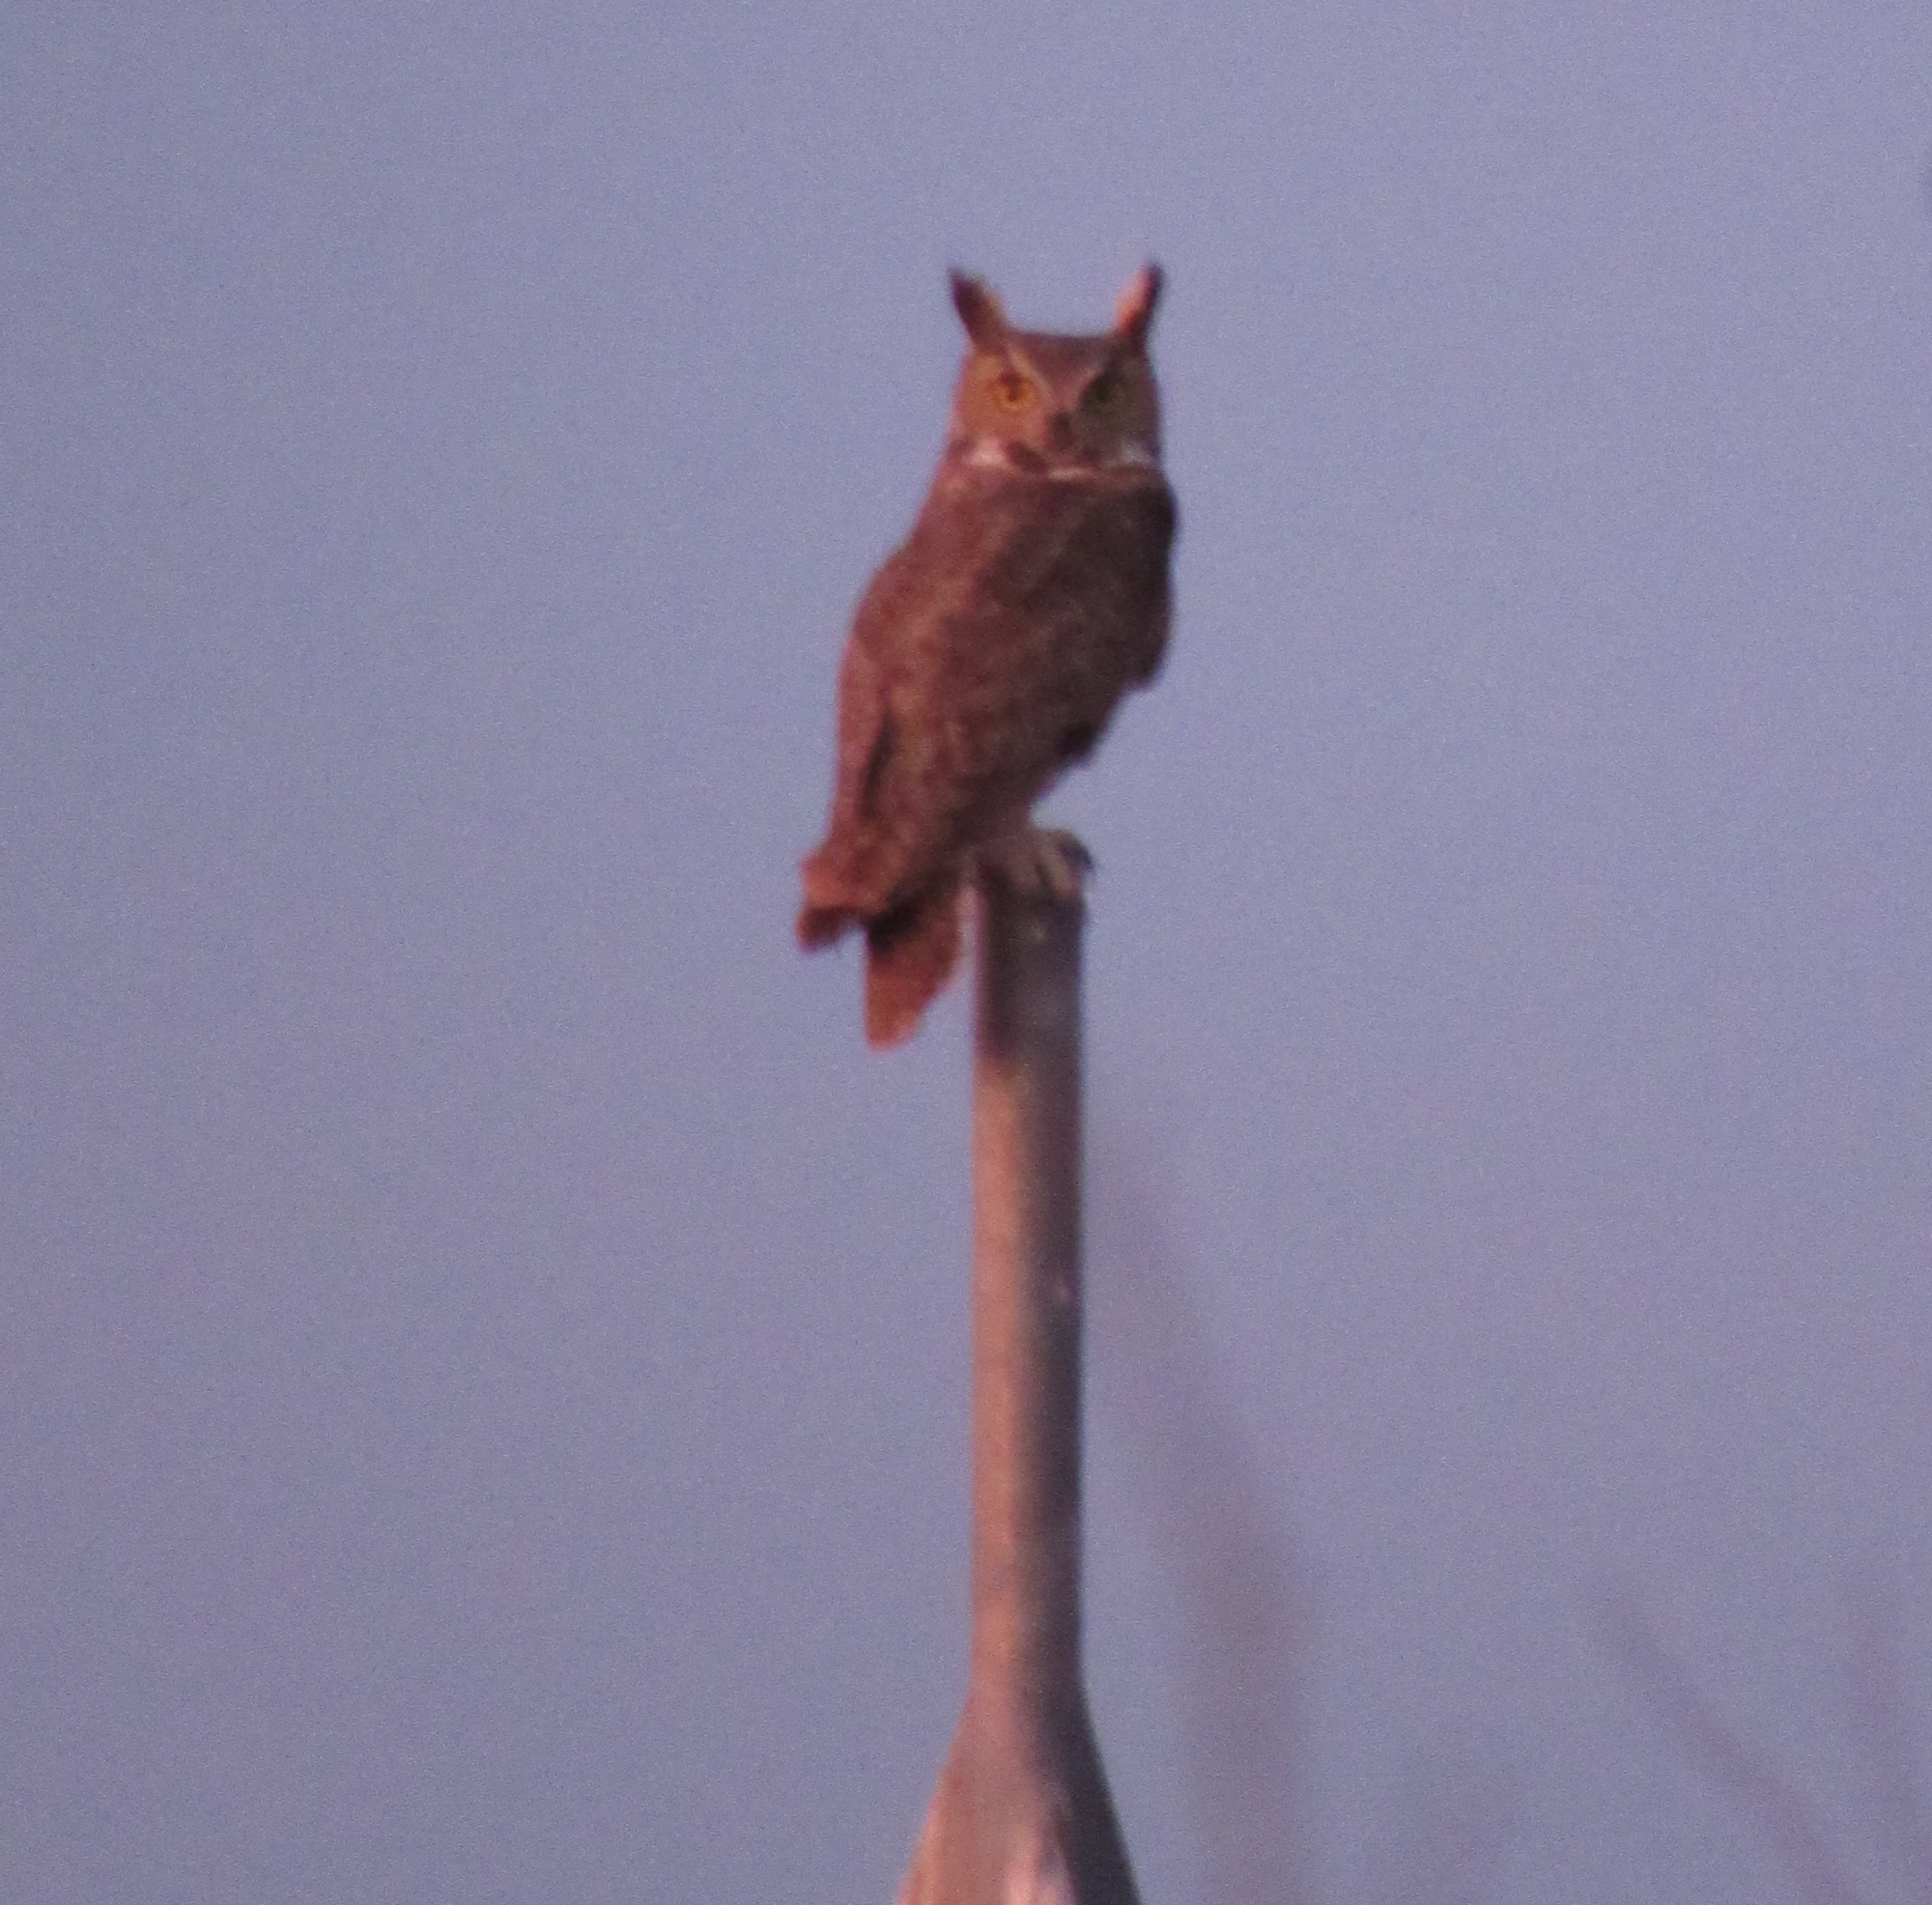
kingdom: Animalia
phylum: Chordata
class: Aves
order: Strigiformes
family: Strigidae
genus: Bubo
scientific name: Bubo virginianus
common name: Great horned owl
